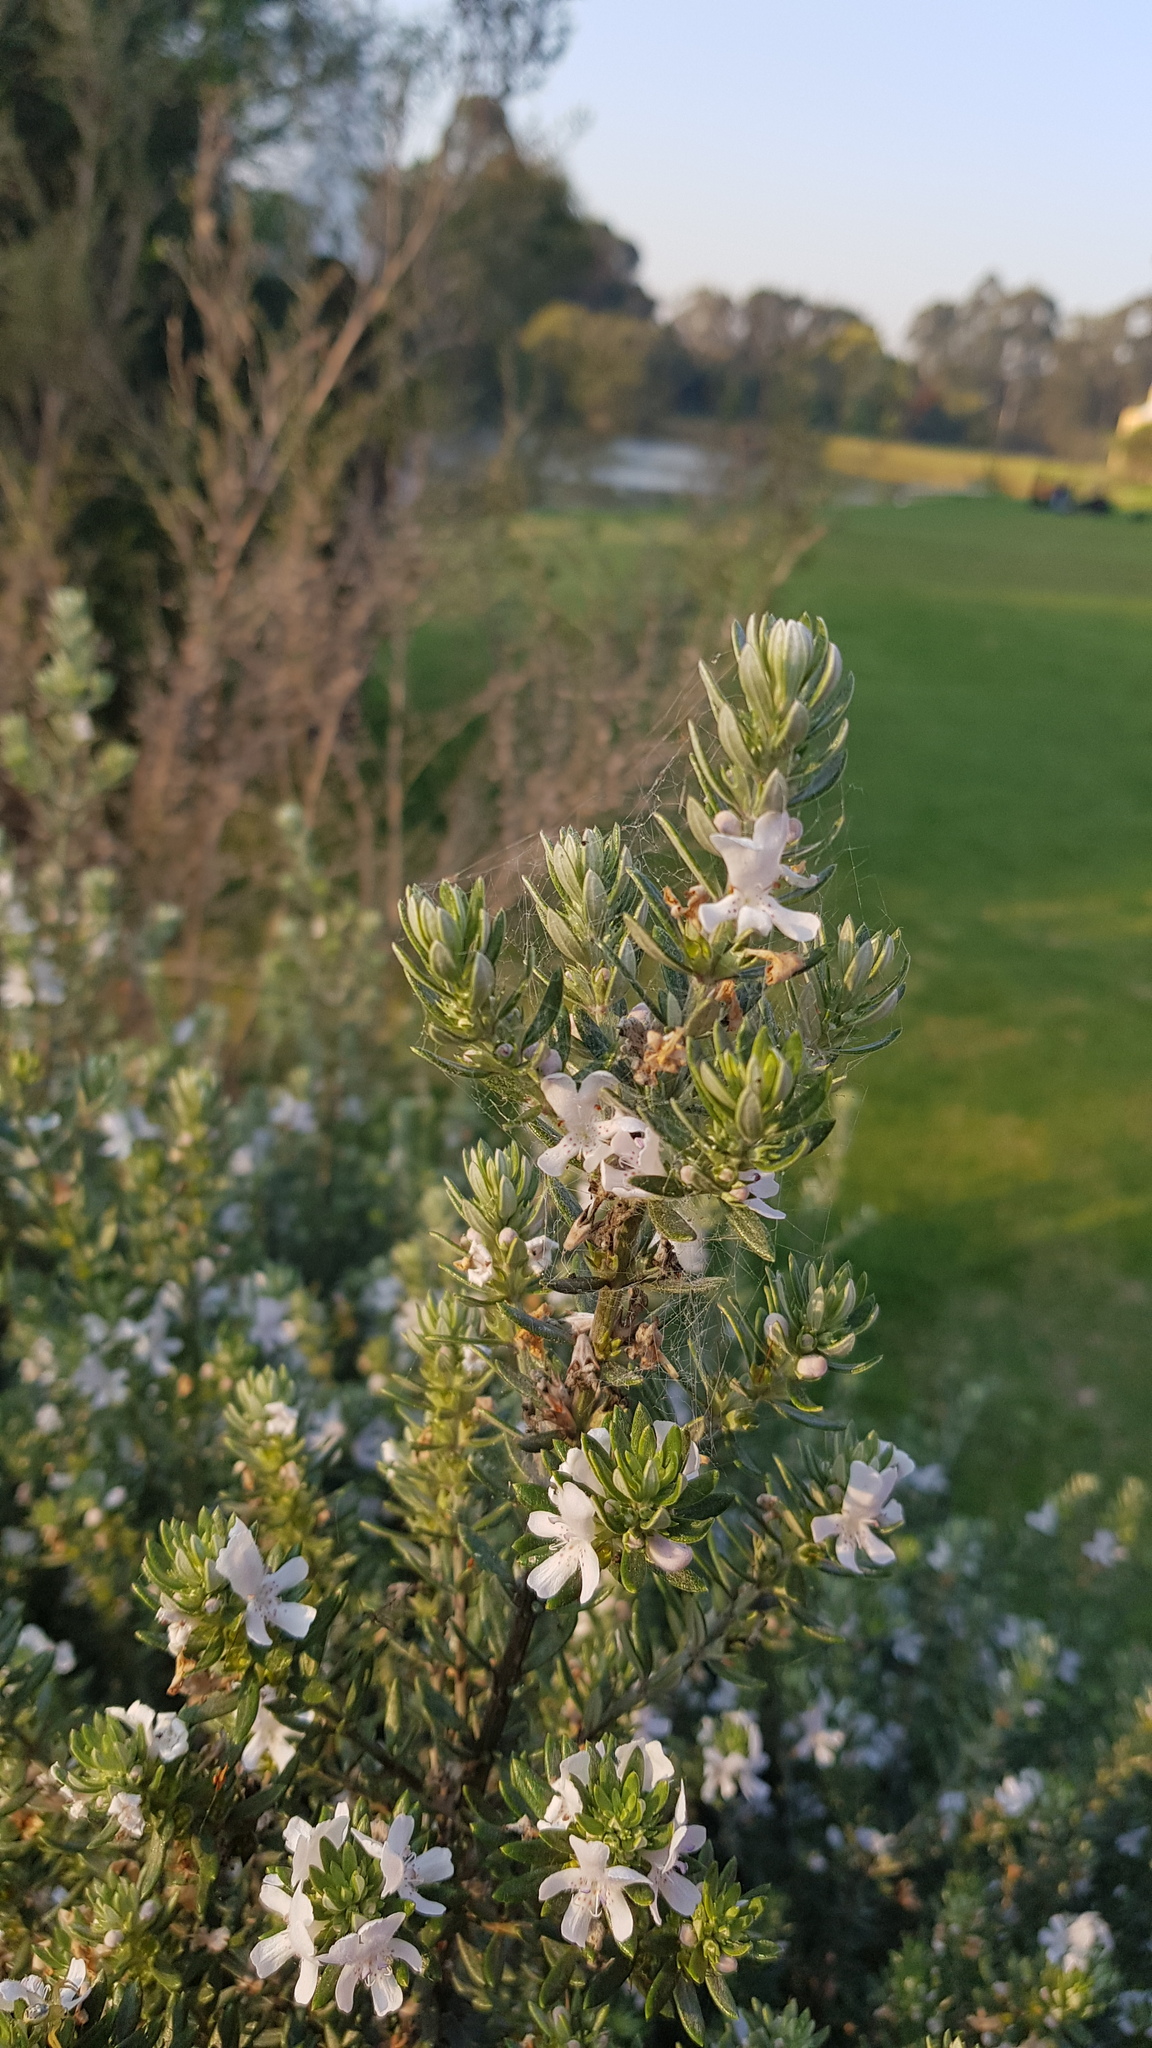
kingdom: Animalia
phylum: Arthropoda
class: Insecta
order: Hymenoptera
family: Apidae
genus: Xylocopa
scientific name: Xylocopa aeratus
